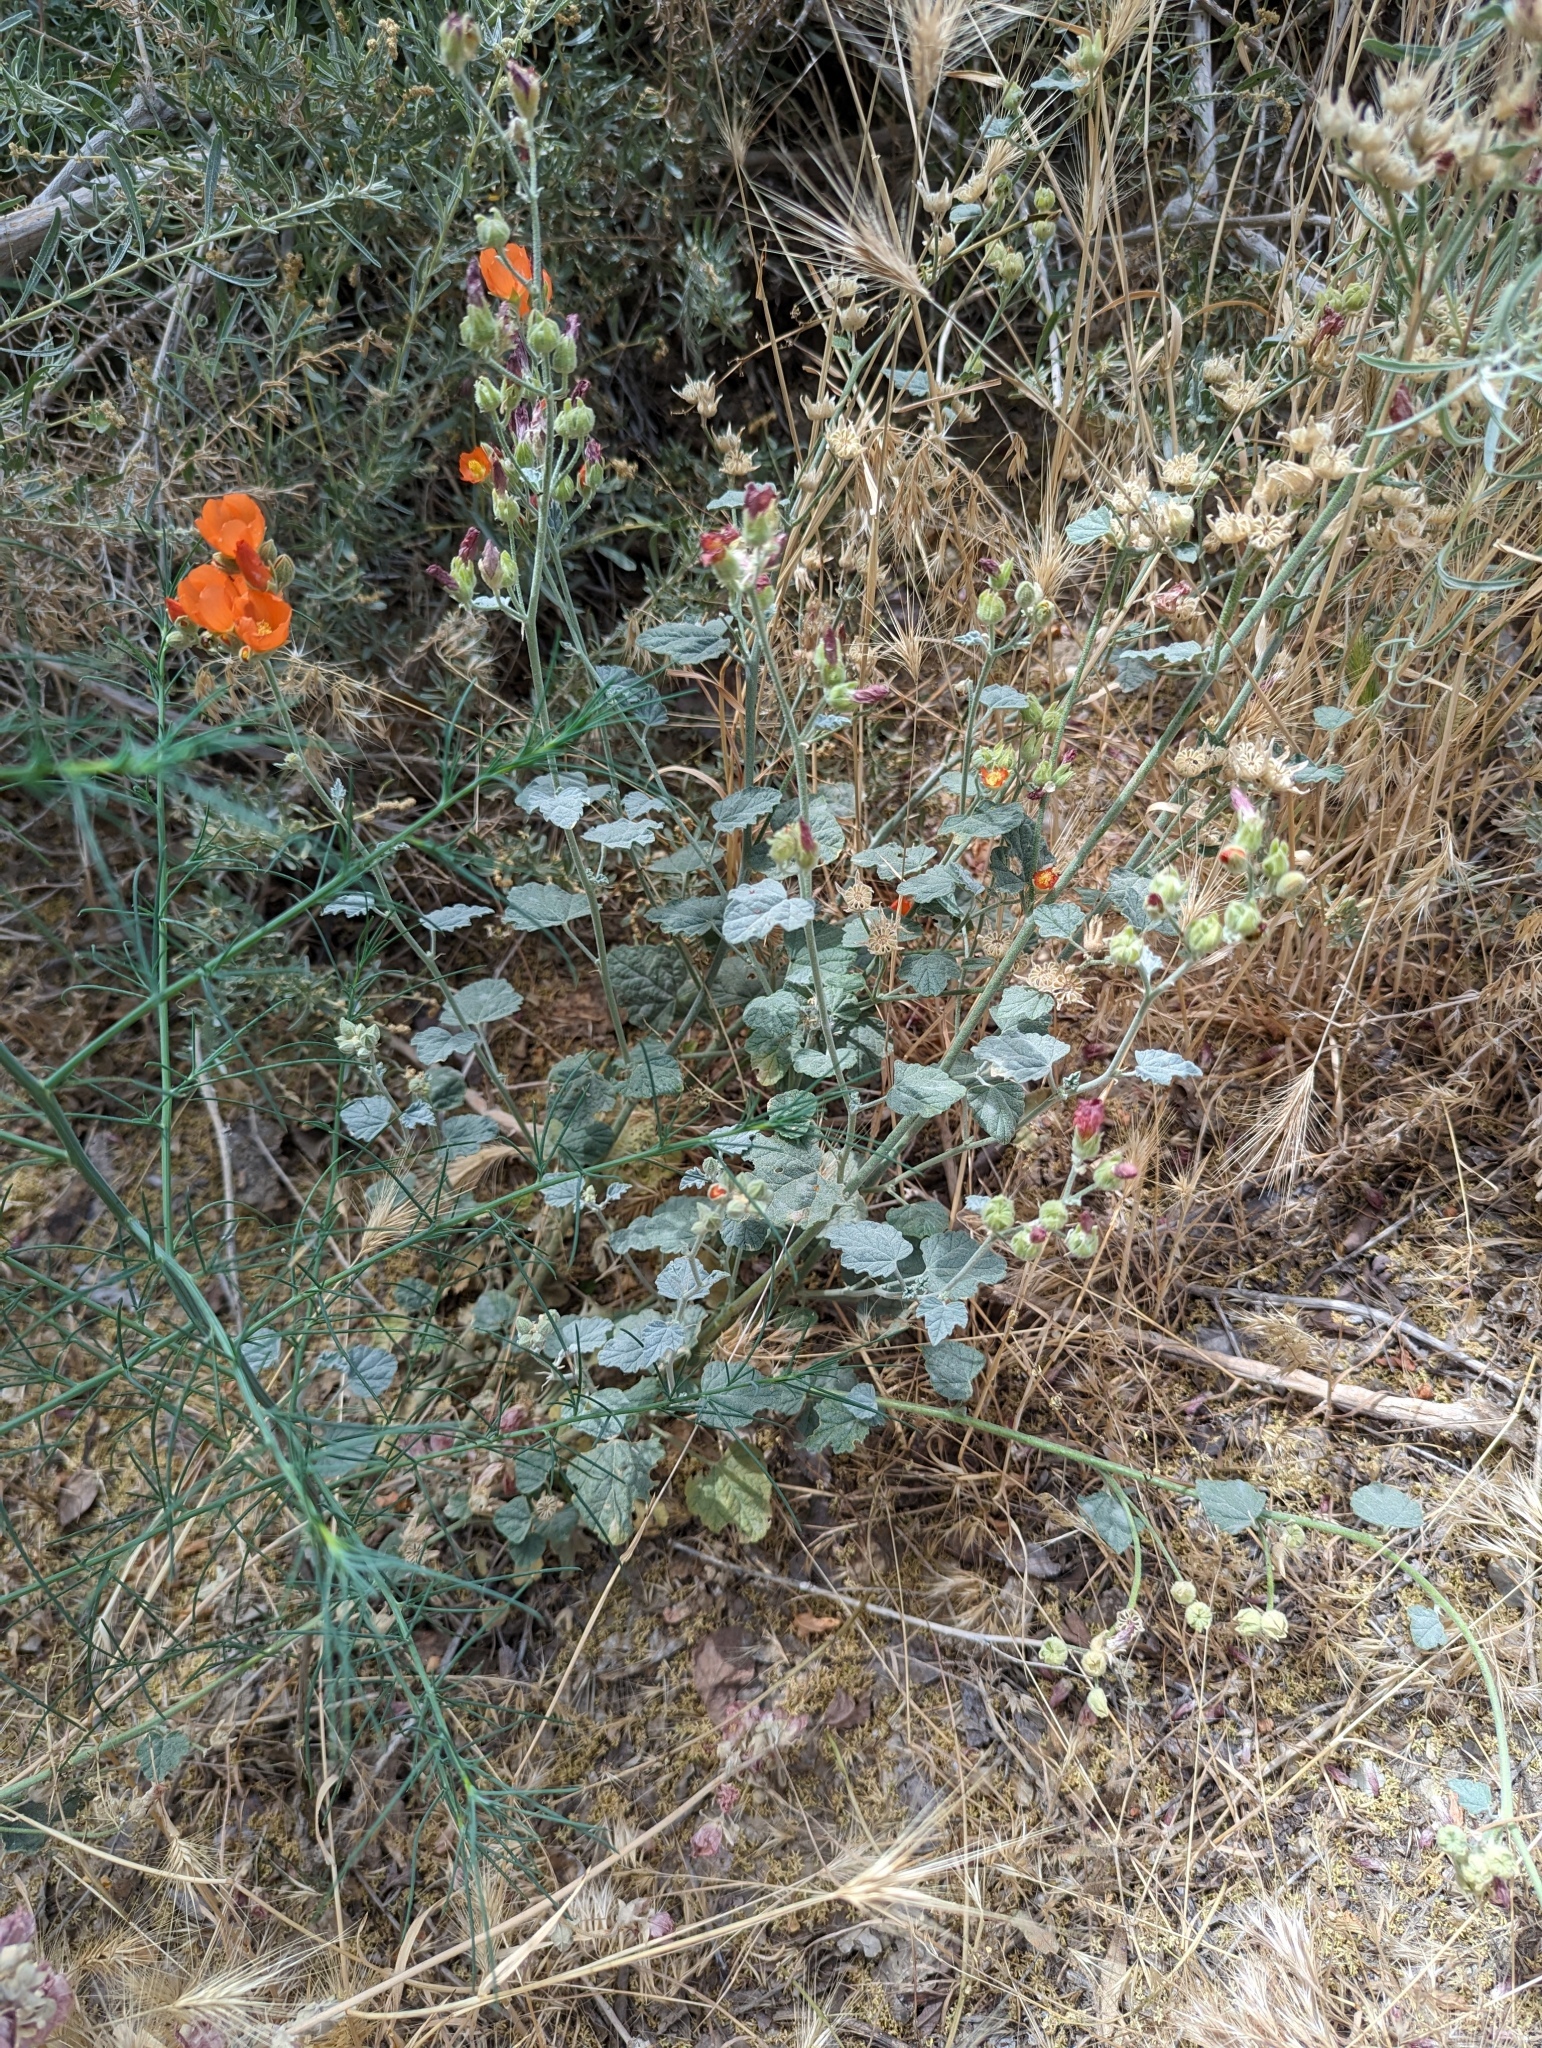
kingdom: Plantae
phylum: Tracheophyta
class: Magnoliopsida
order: Malvales
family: Malvaceae
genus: Sphaeralcea
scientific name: Sphaeralcea ambigua
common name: Apricot globe-mallow
